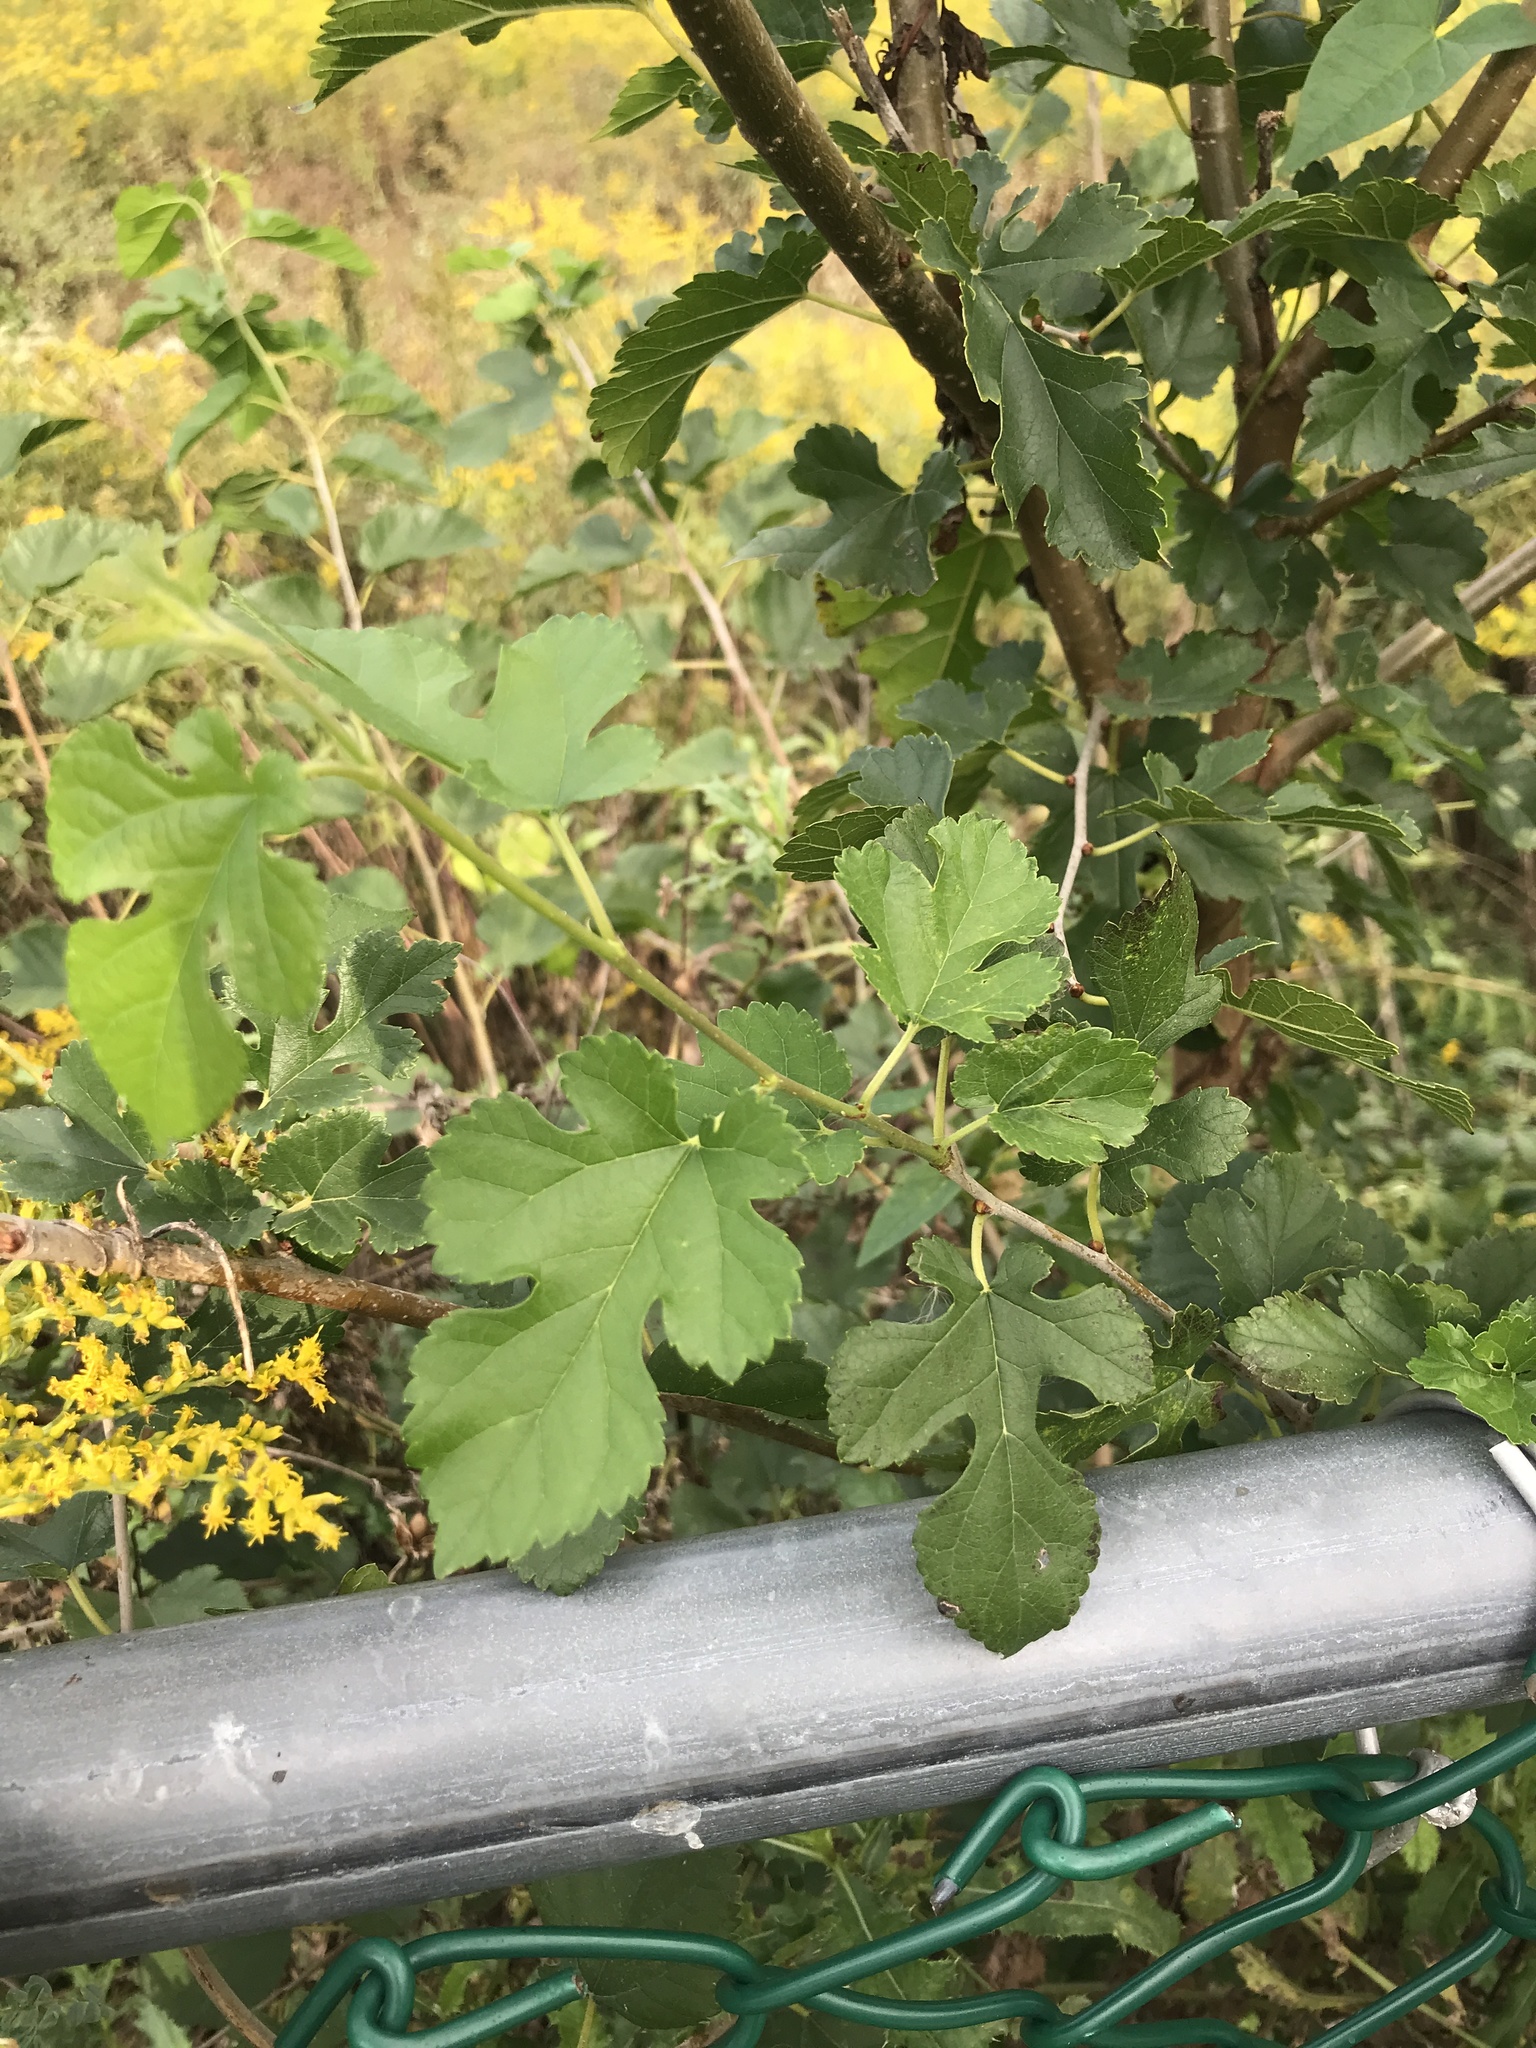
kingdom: Plantae
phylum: Tracheophyta
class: Magnoliopsida
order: Rosales
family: Moraceae
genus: Morus
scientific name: Morus alba
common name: White mulberry
